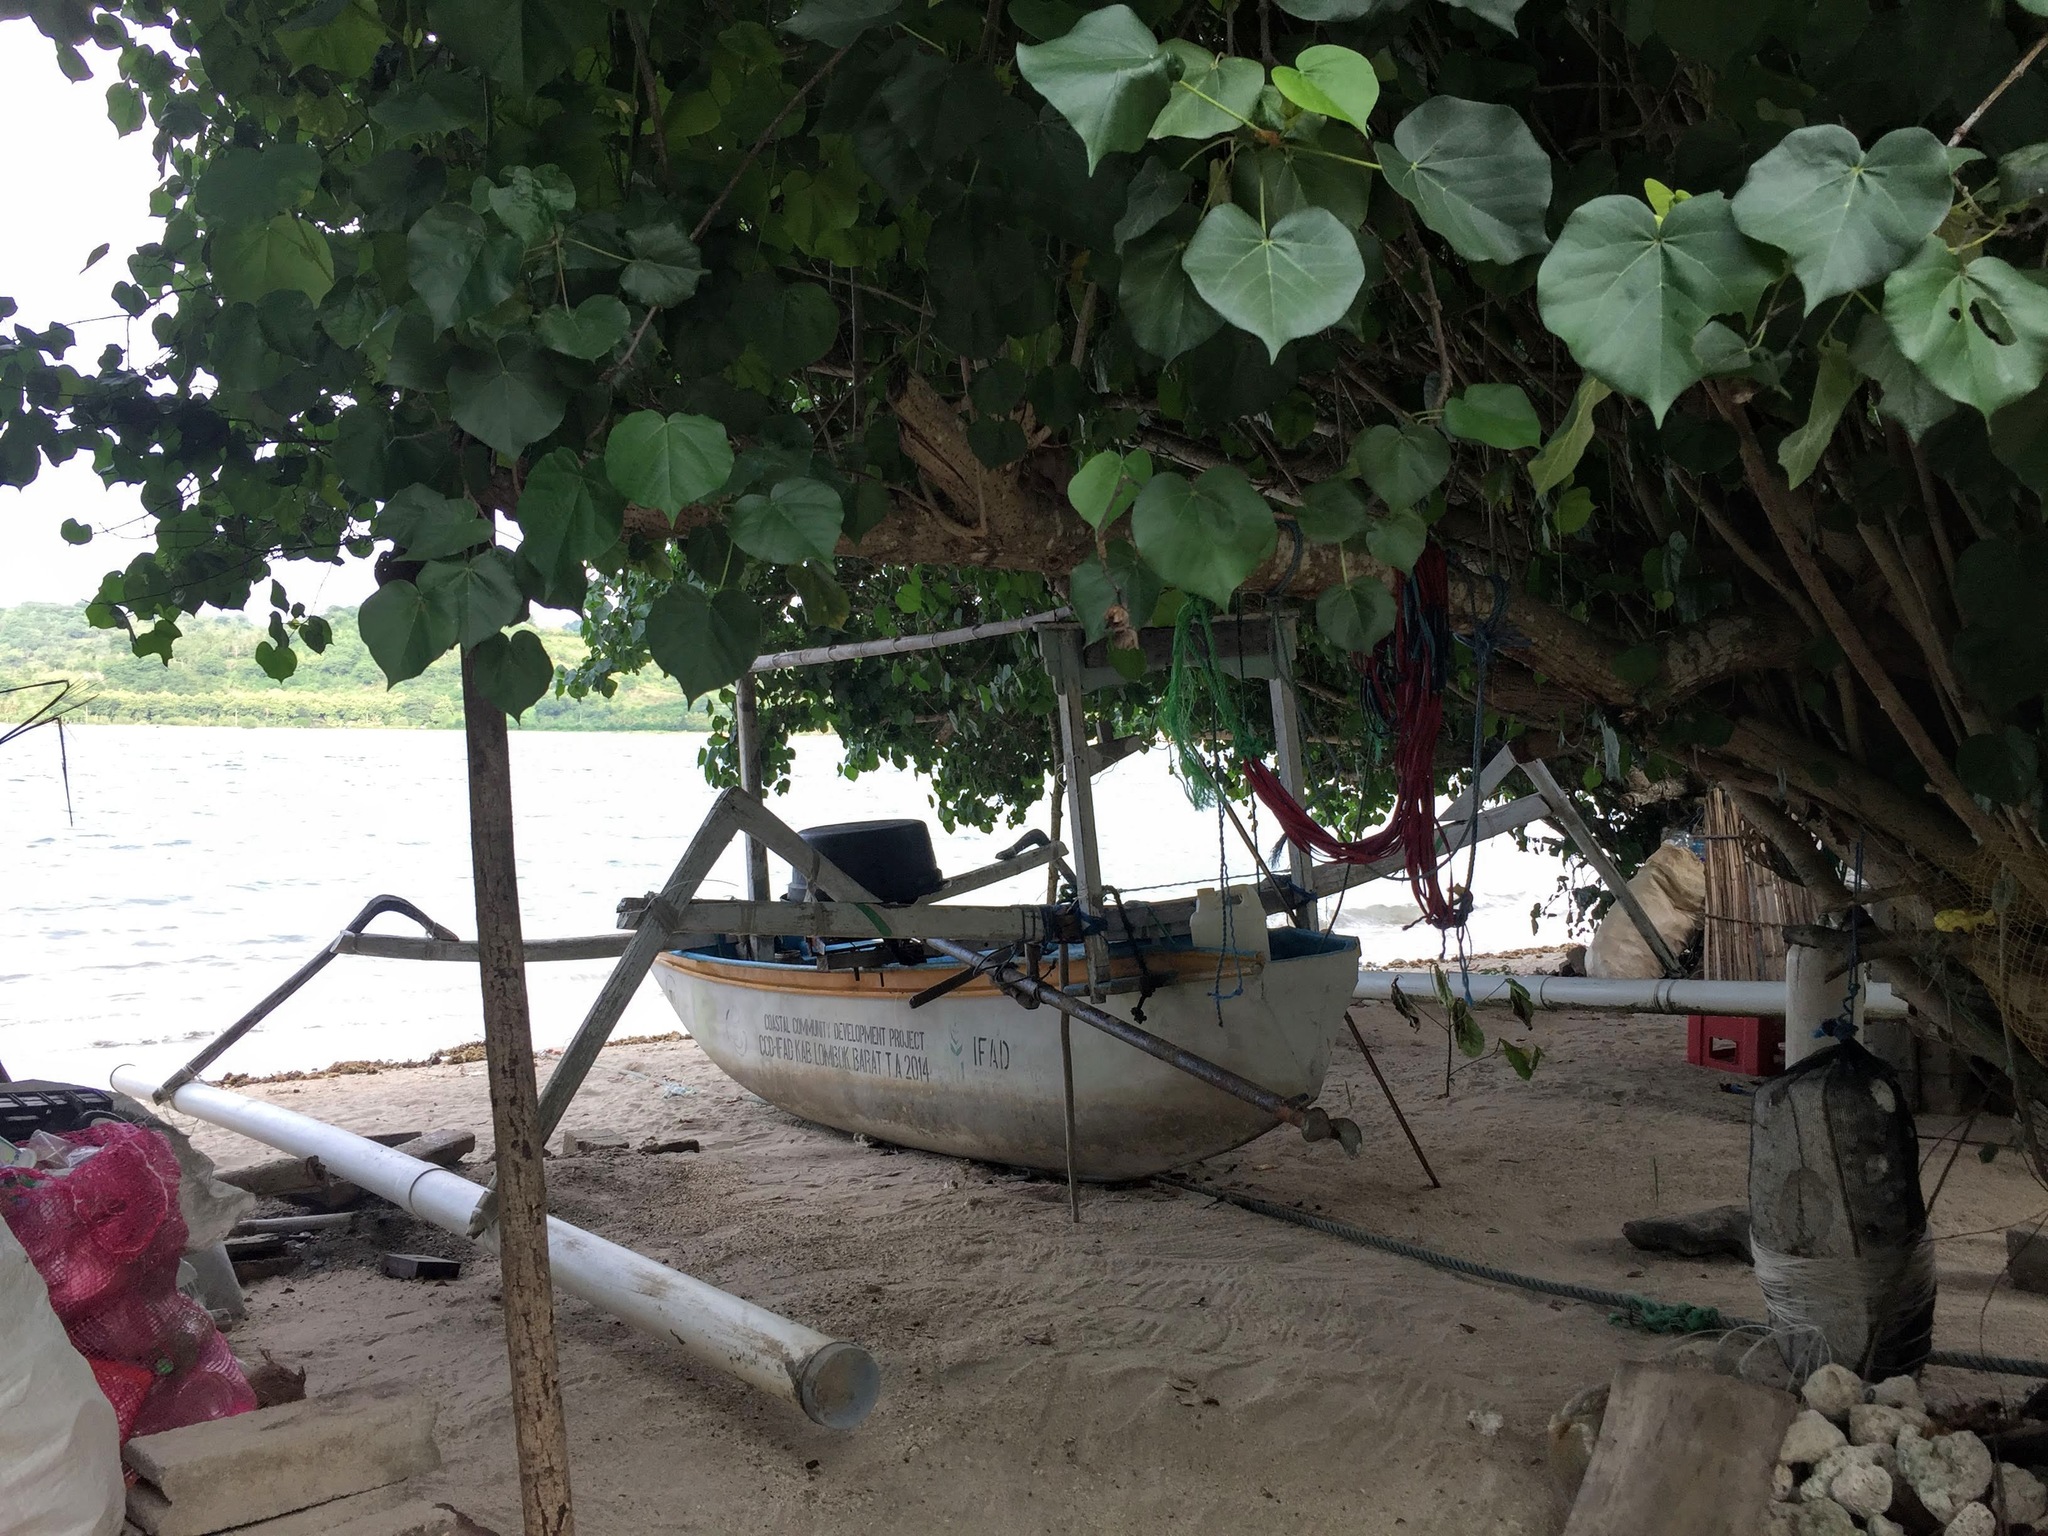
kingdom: Plantae
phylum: Tracheophyta
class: Magnoliopsida
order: Malvales
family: Malvaceae
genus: Talipariti
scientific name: Talipariti tiliaceum
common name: Sea hibiscus
